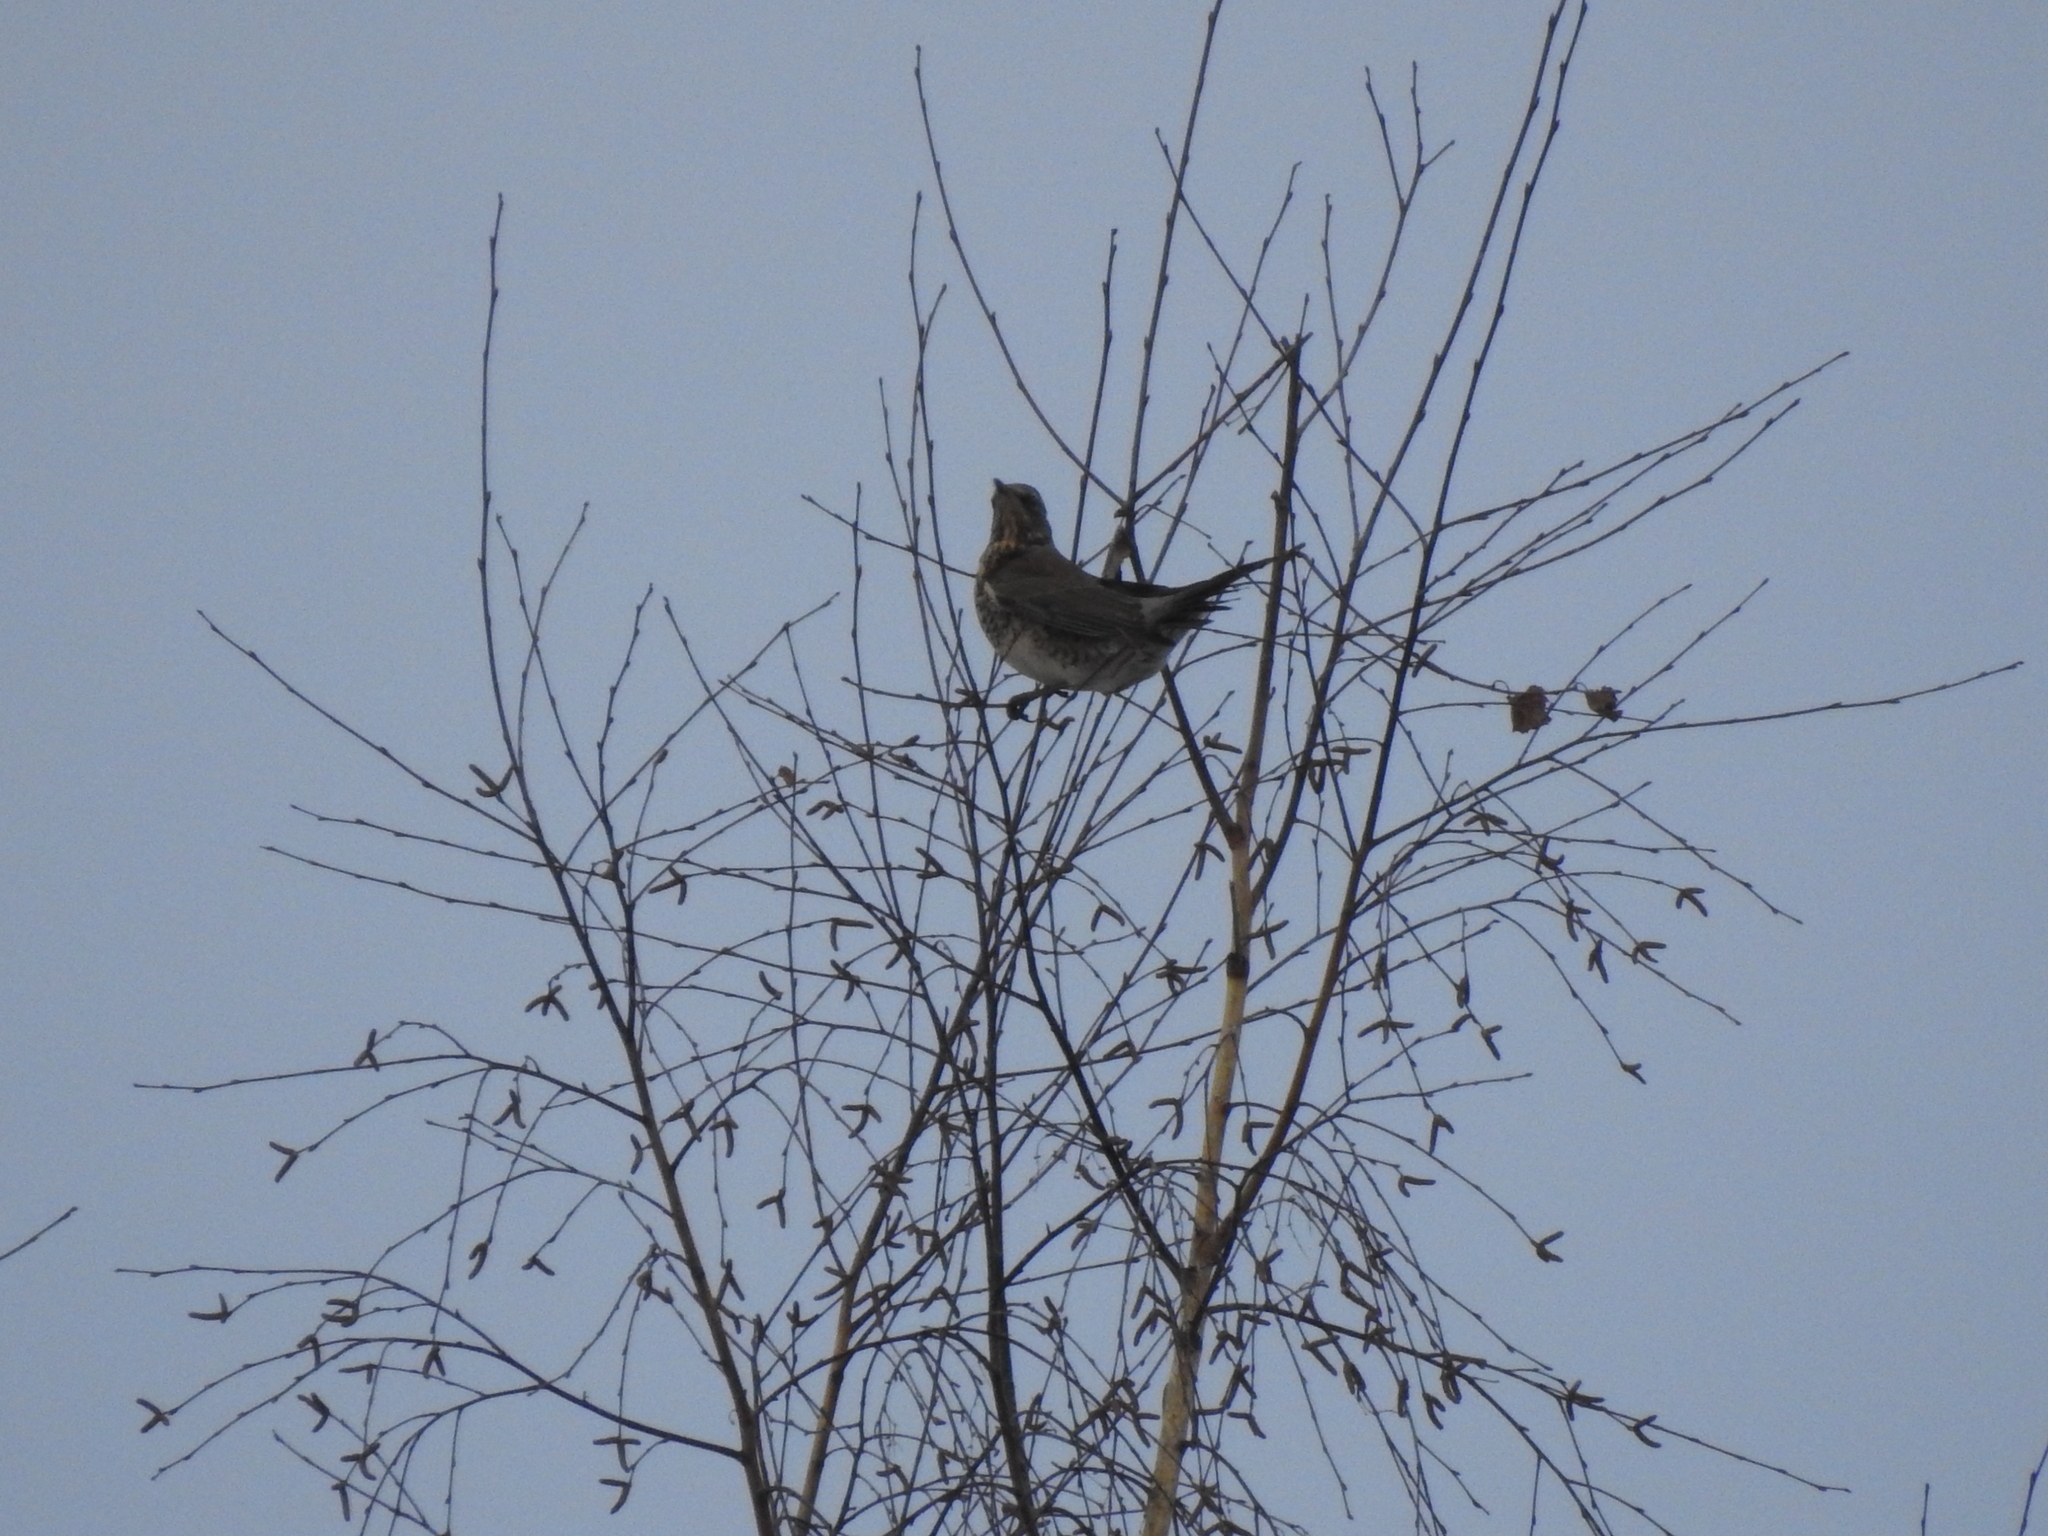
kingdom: Animalia
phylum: Chordata
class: Aves
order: Passeriformes
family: Turdidae
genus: Turdus
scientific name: Turdus pilaris
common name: Fieldfare
